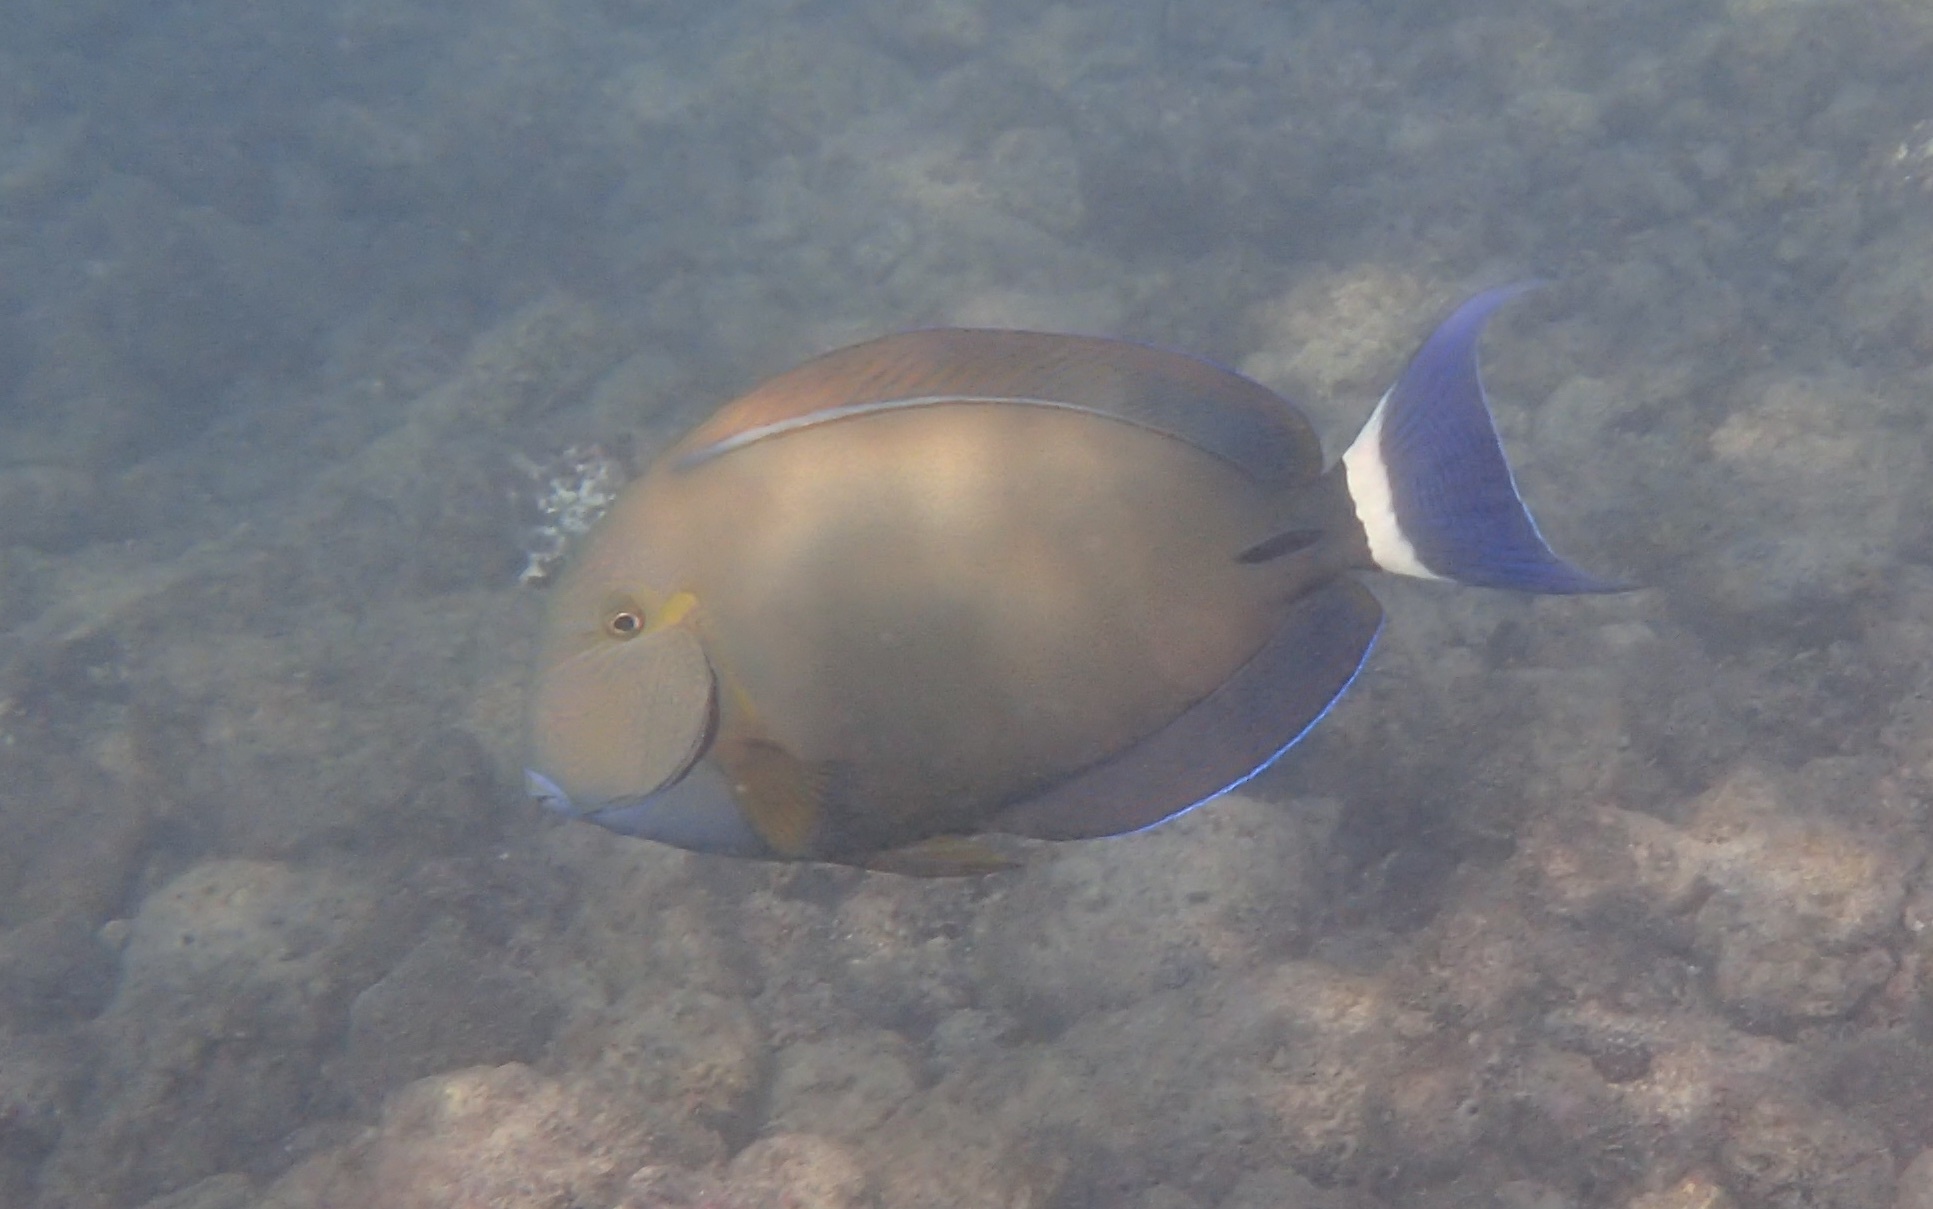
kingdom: Animalia
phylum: Chordata
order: Perciformes
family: Acanthuridae
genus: Acanthurus
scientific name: Acanthurus blochii
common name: Blue-banded pualu
